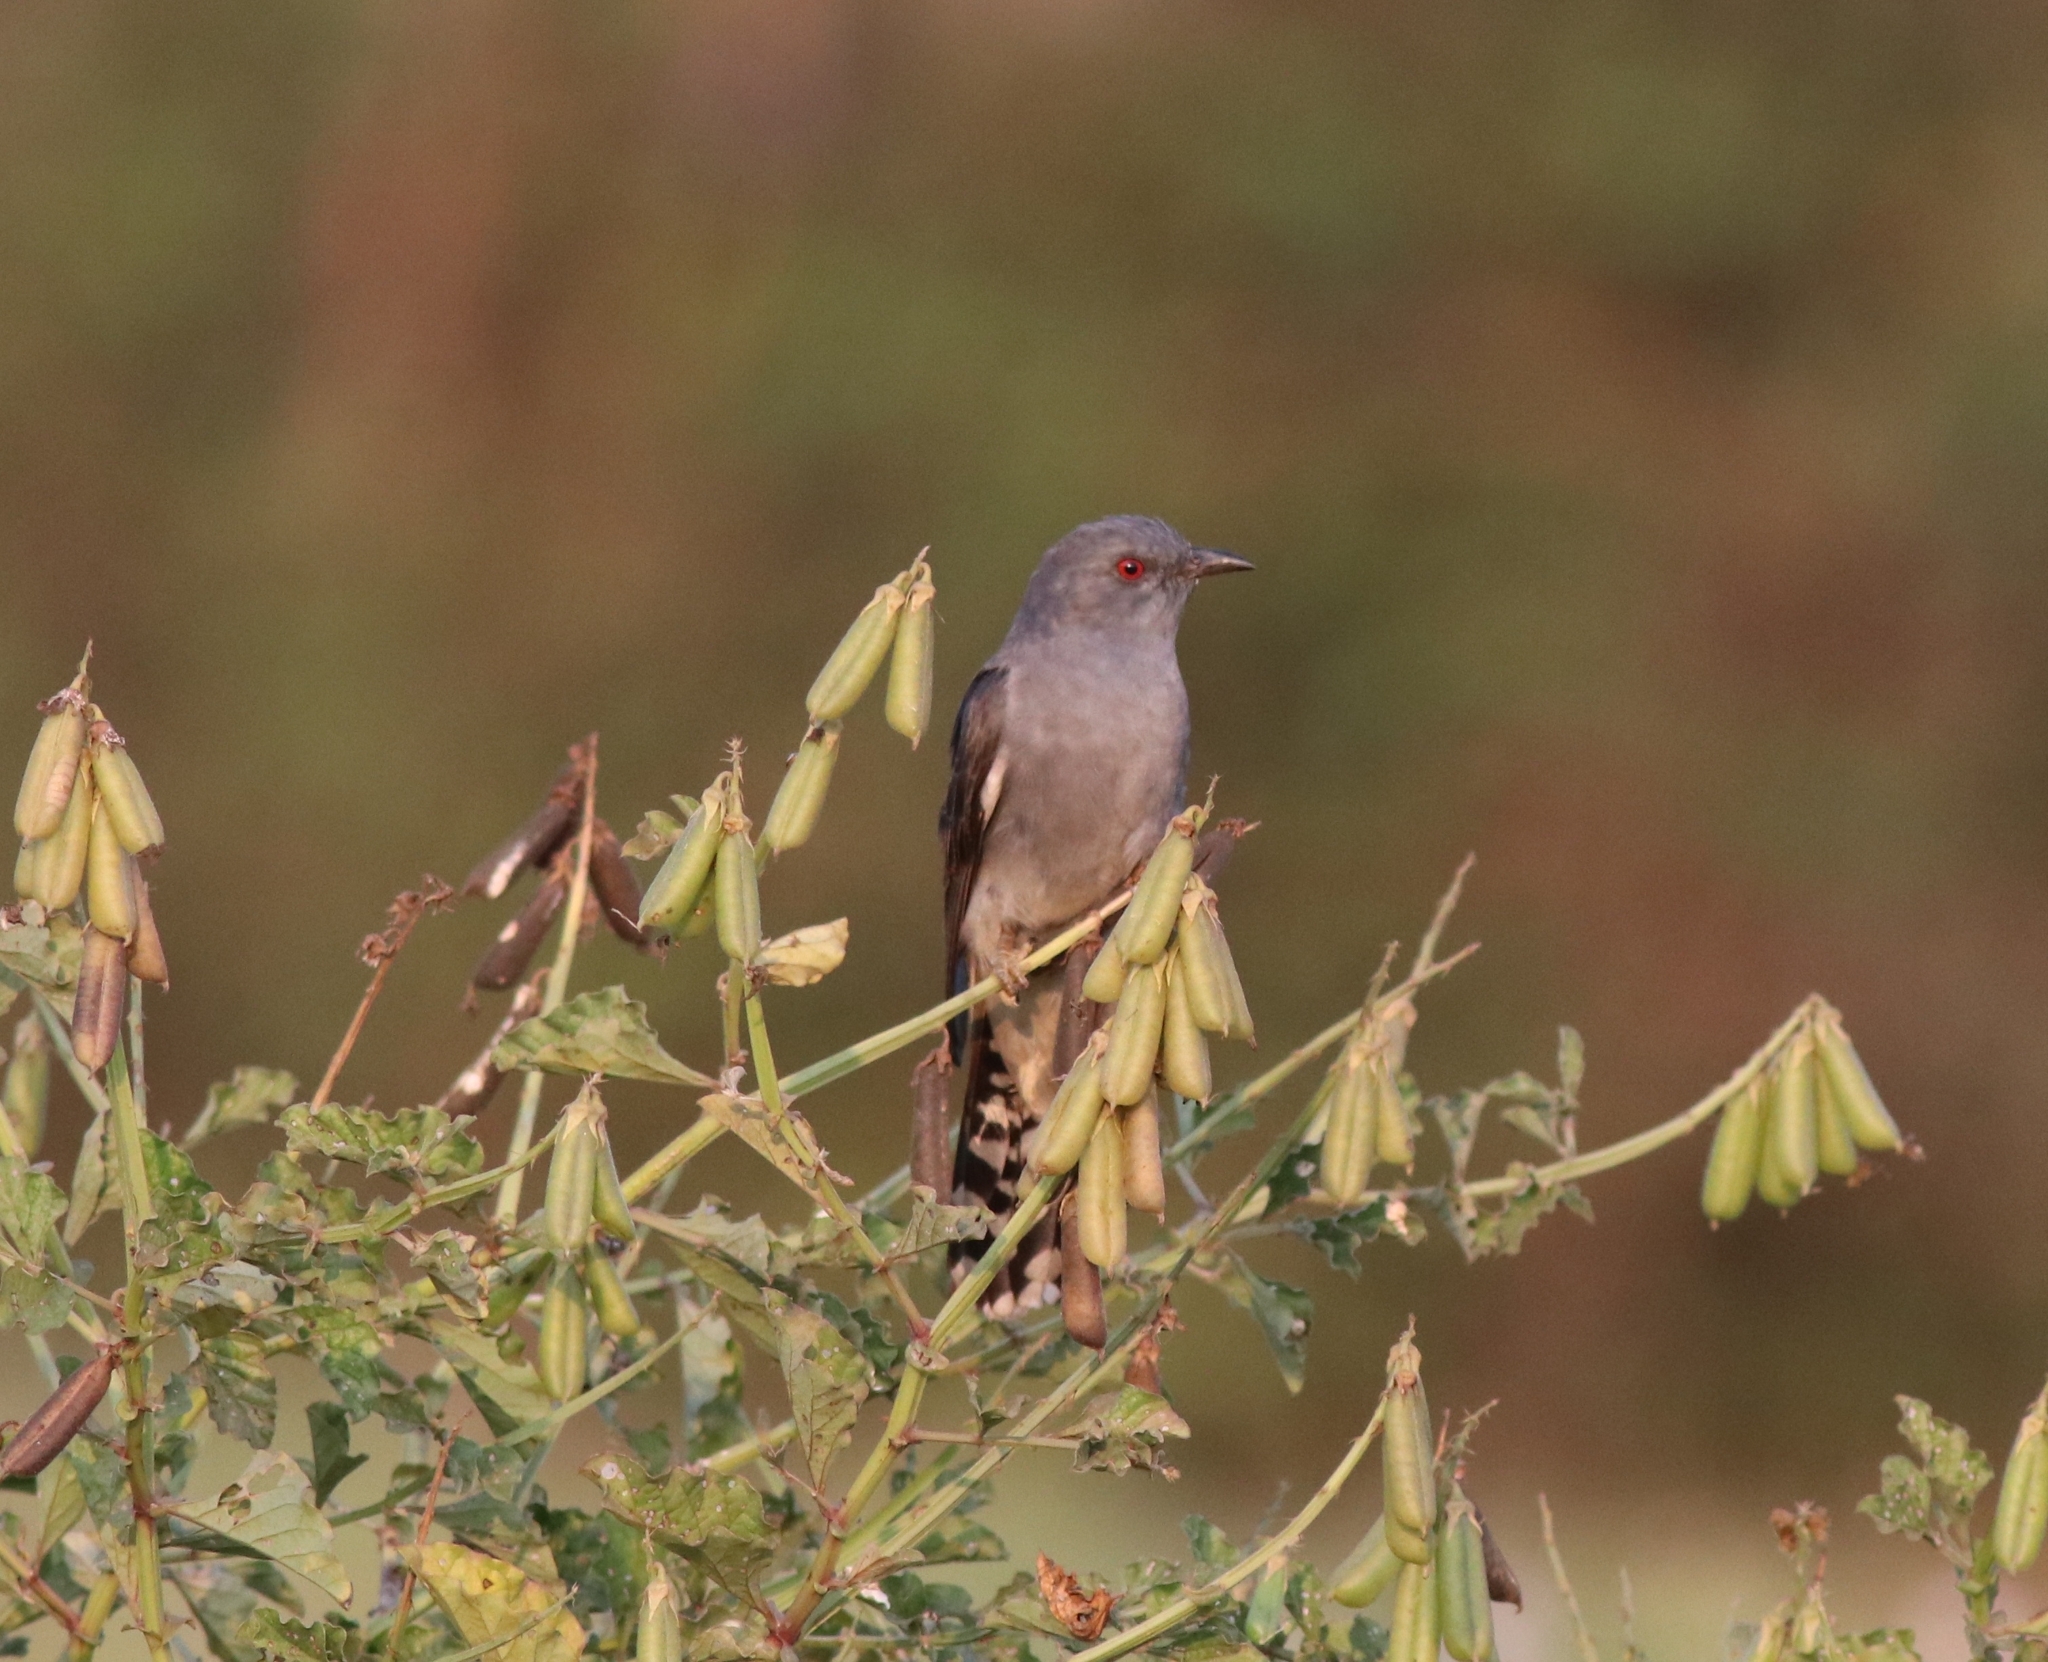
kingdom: Animalia
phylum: Chordata
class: Aves
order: Cuculiformes
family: Cuculidae
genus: Cacomantis
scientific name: Cacomantis passerinus
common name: Grey-bellied cuckoo
